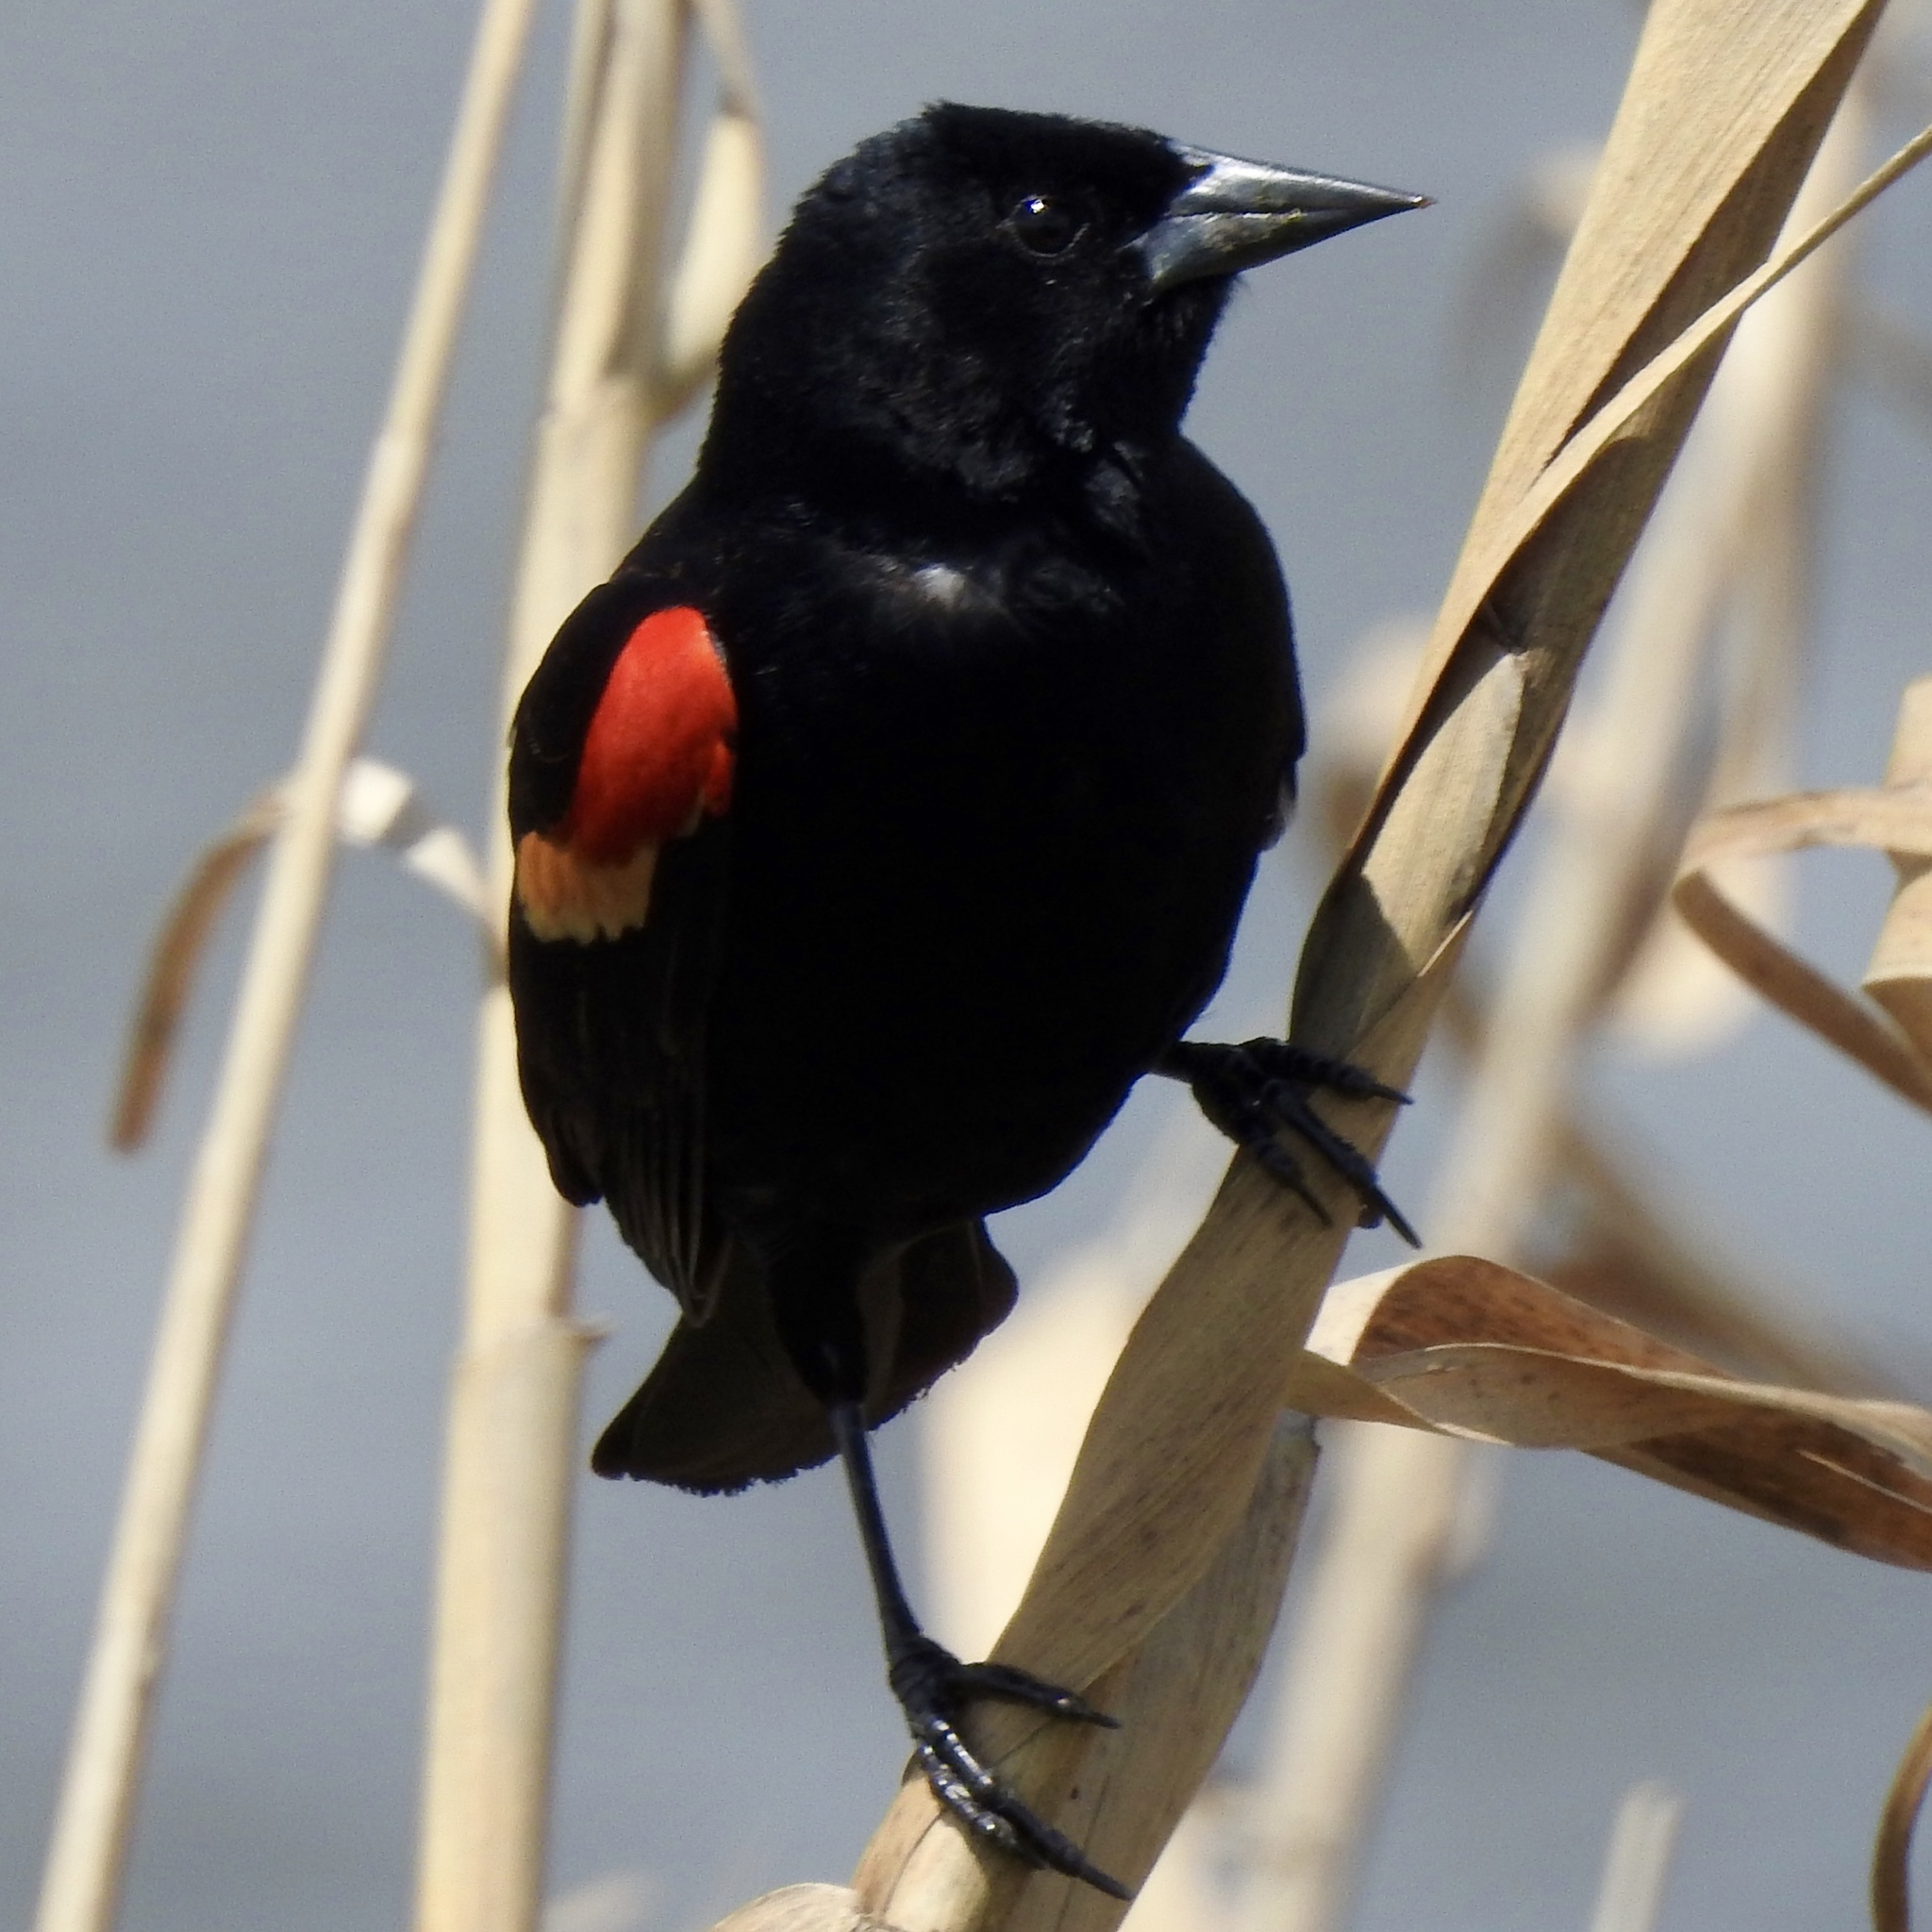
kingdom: Animalia
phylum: Chordata
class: Aves
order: Passeriformes
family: Icteridae
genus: Agelaius
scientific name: Agelaius phoeniceus
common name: Red-winged blackbird
